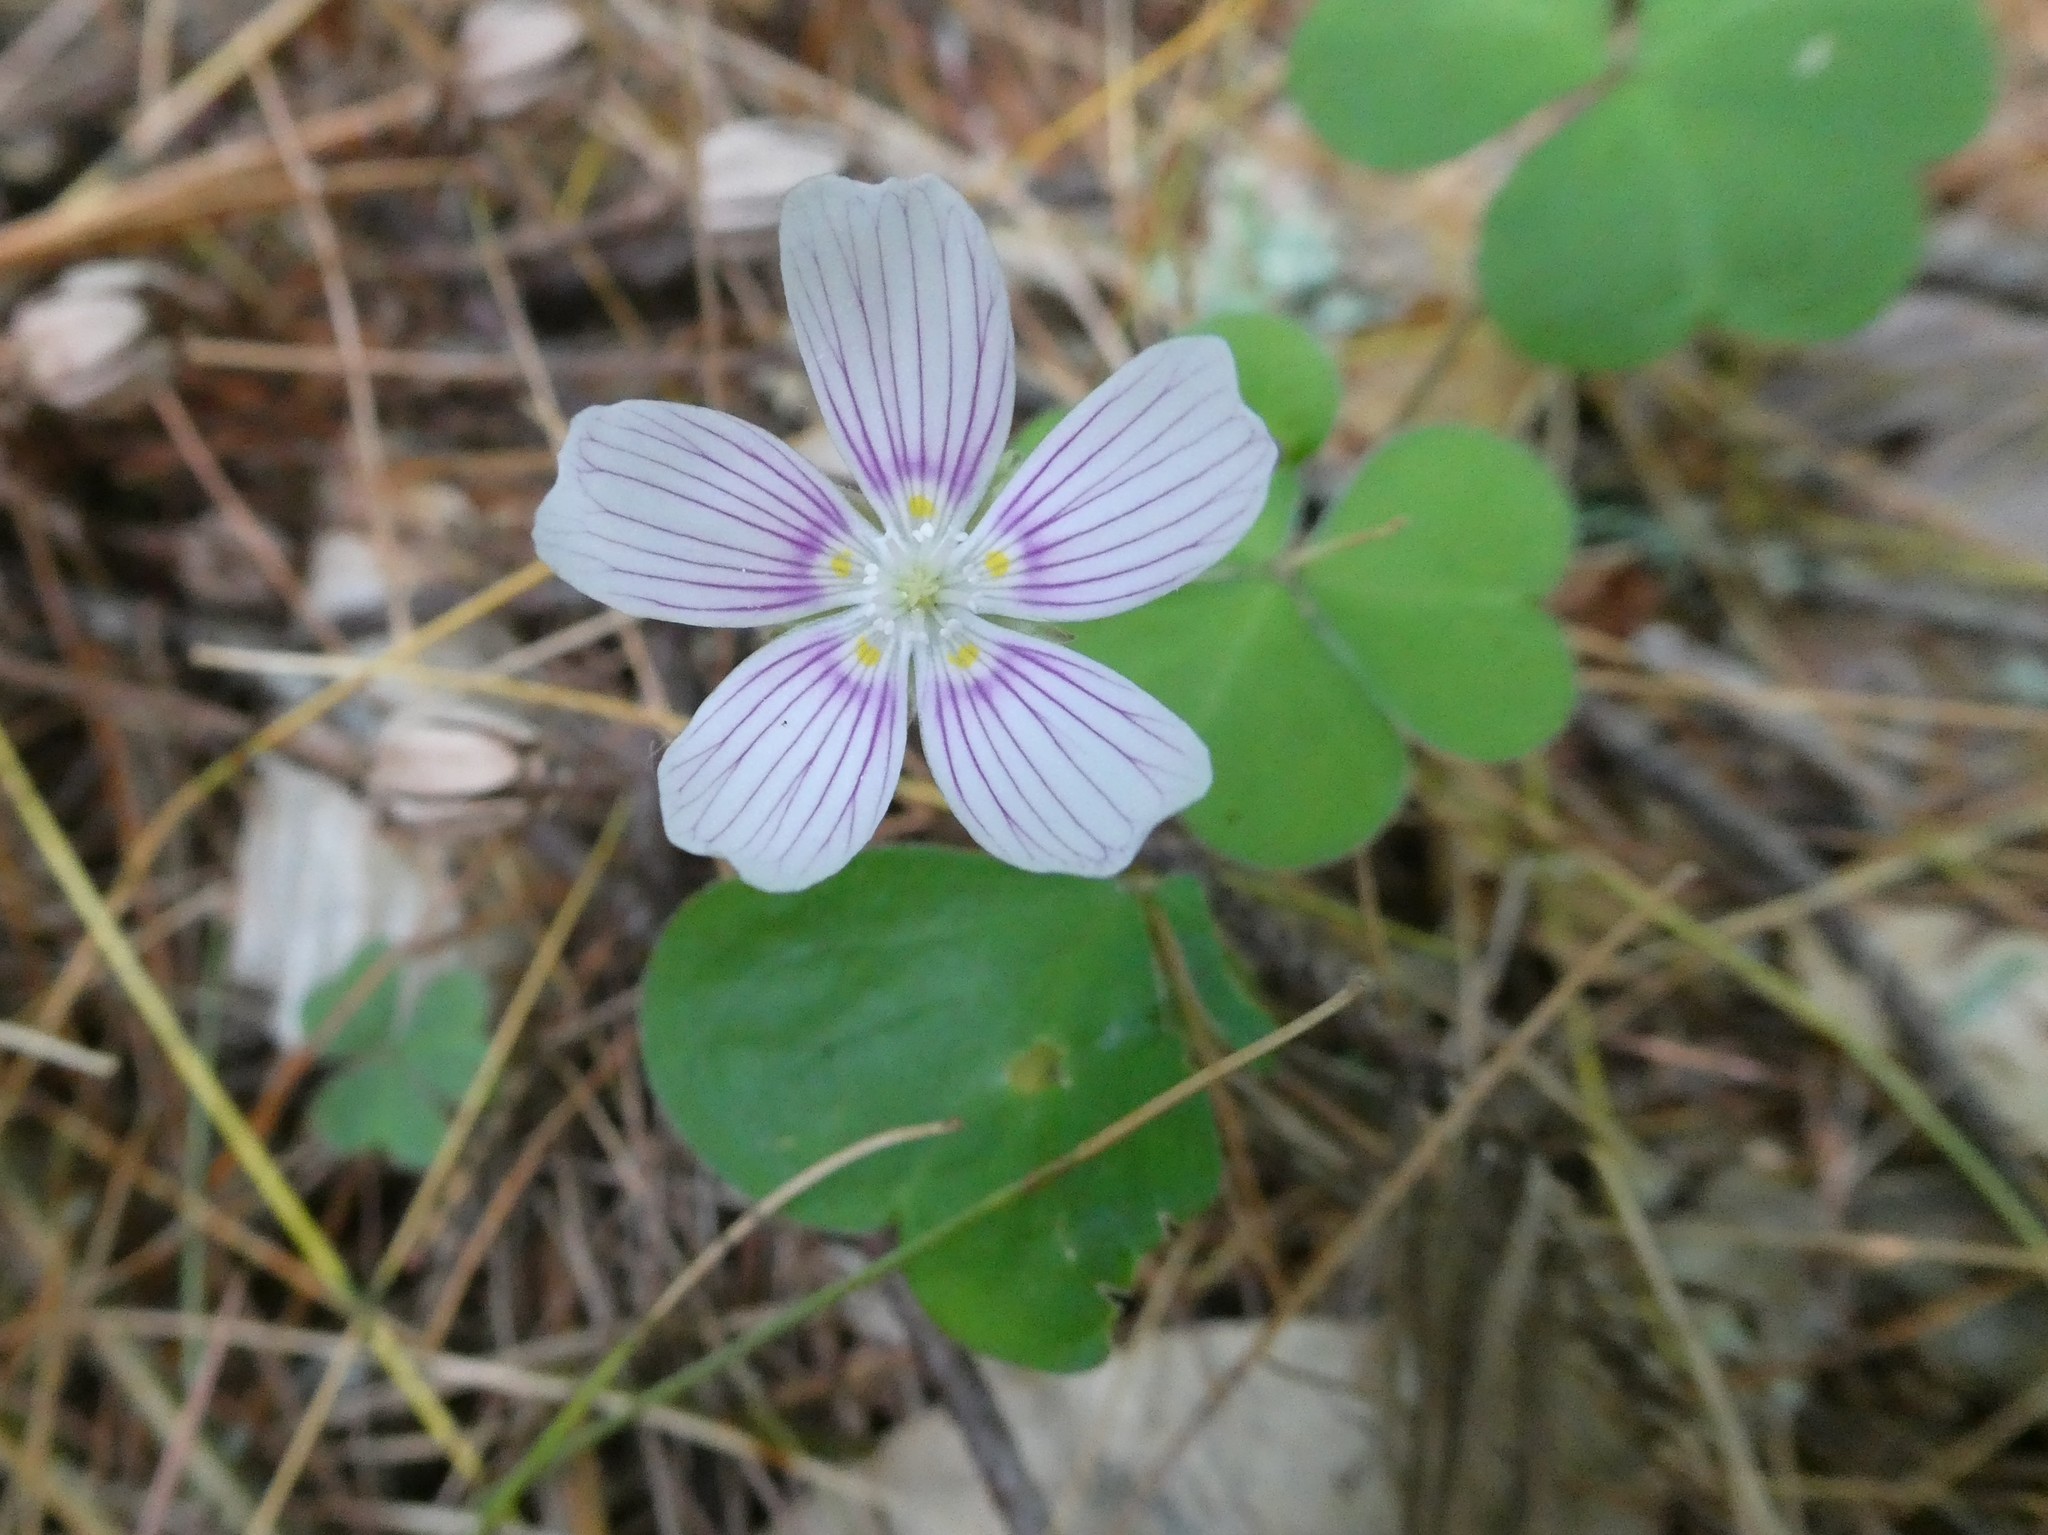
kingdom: Plantae
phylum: Tracheophyta
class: Magnoliopsida
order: Oxalidales
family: Oxalidaceae
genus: Oxalis
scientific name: Oxalis montana
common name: American wood-sorrel
